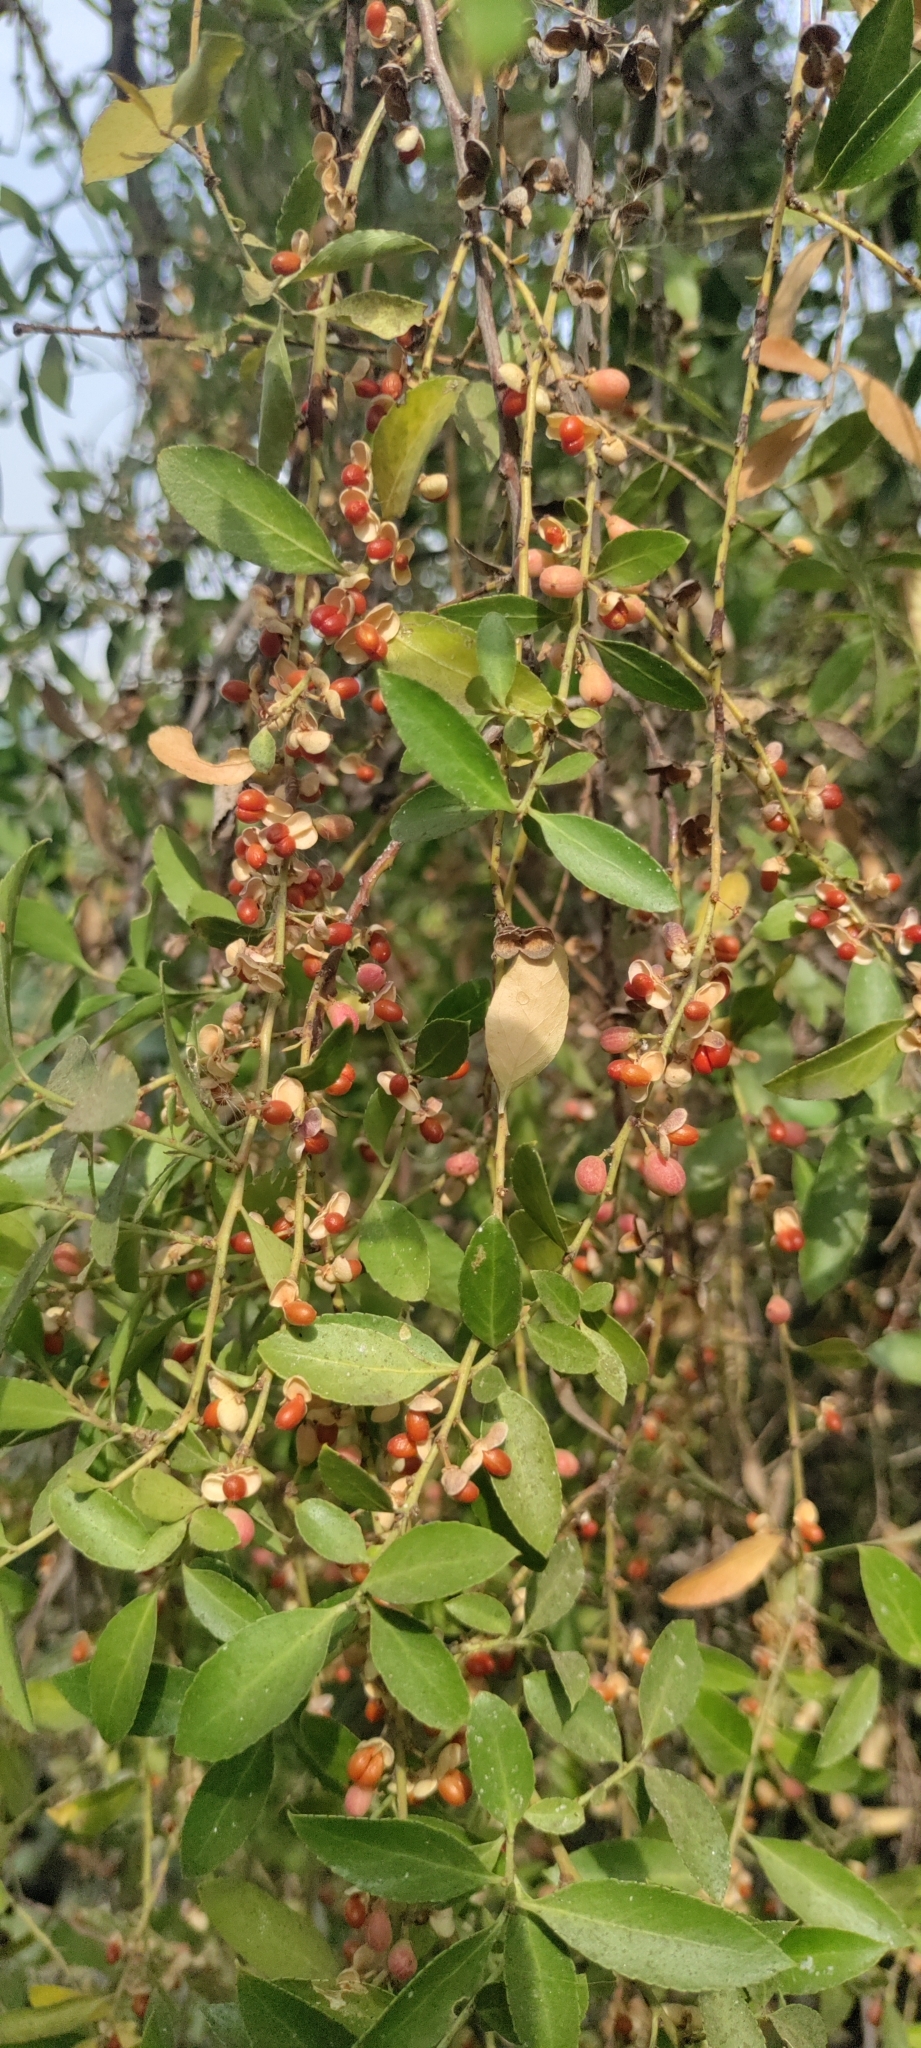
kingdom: Plantae
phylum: Tracheophyta
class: Magnoliopsida
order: Celastrales
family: Celastraceae
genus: Maytenus
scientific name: Maytenus boaria
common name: Mayten
